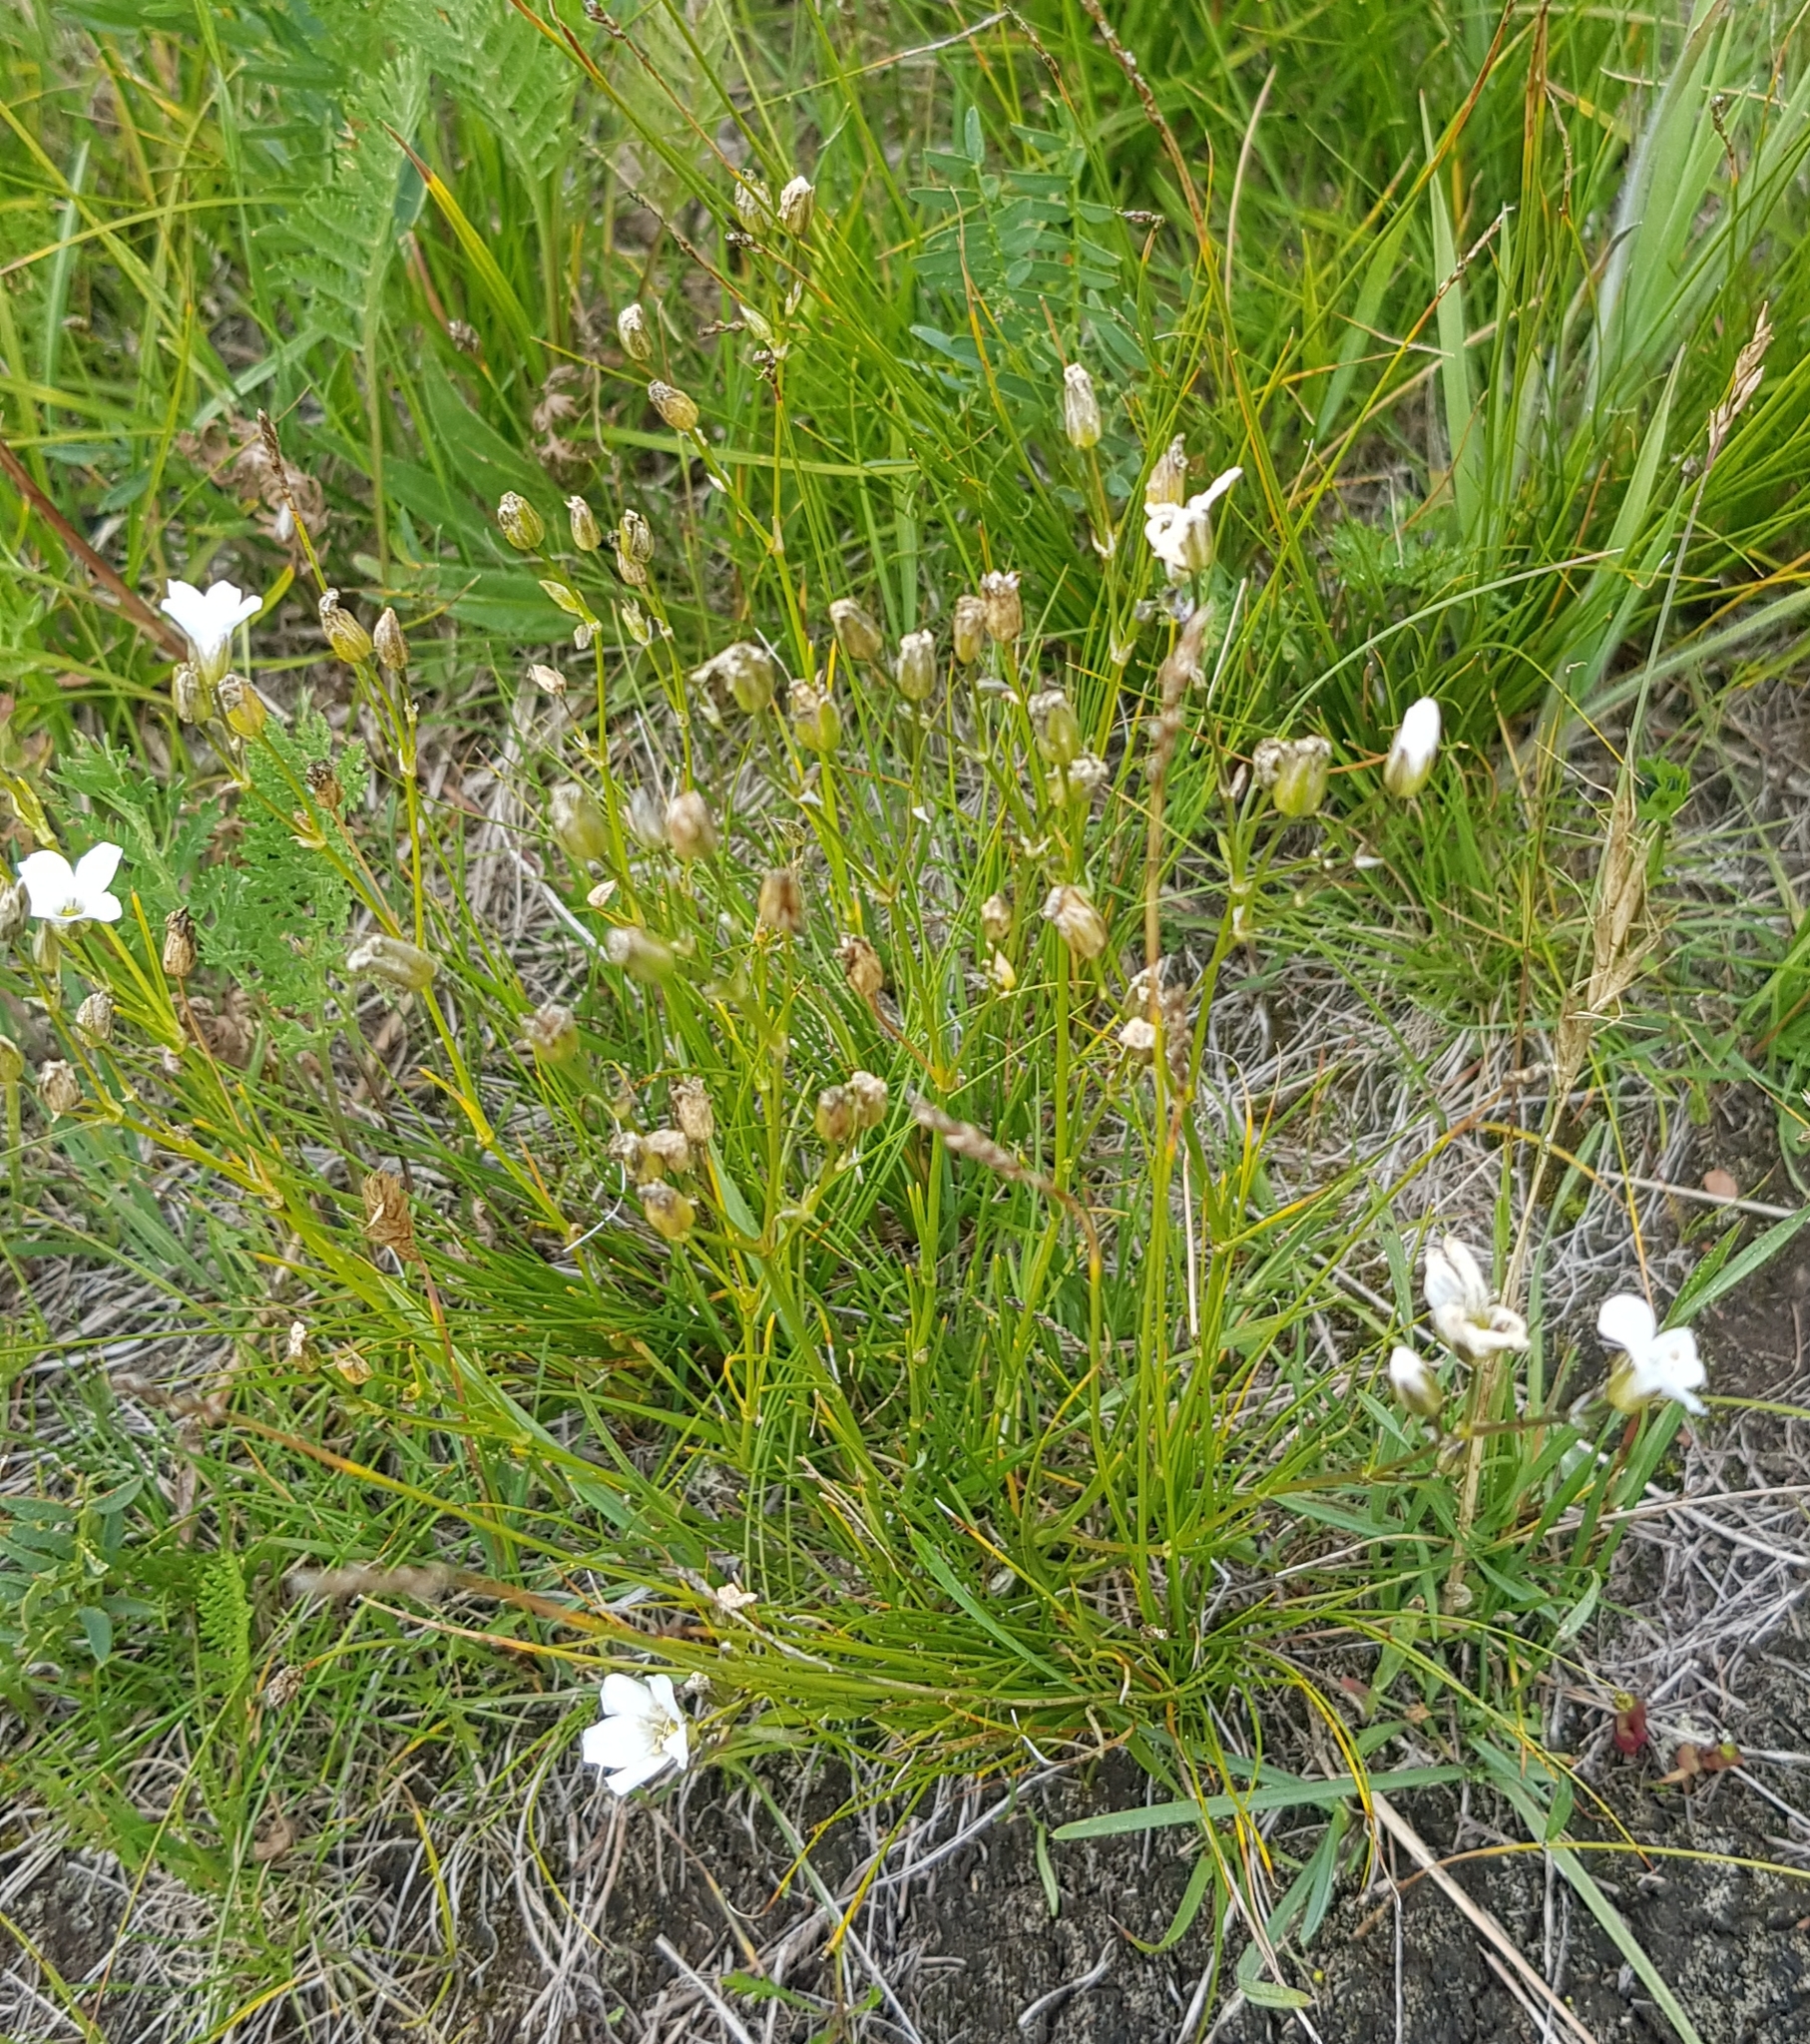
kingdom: Plantae
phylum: Tracheophyta
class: Magnoliopsida
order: Caryophyllales
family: Caryophyllaceae
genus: Eremogone
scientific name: Eremogone meyeri
